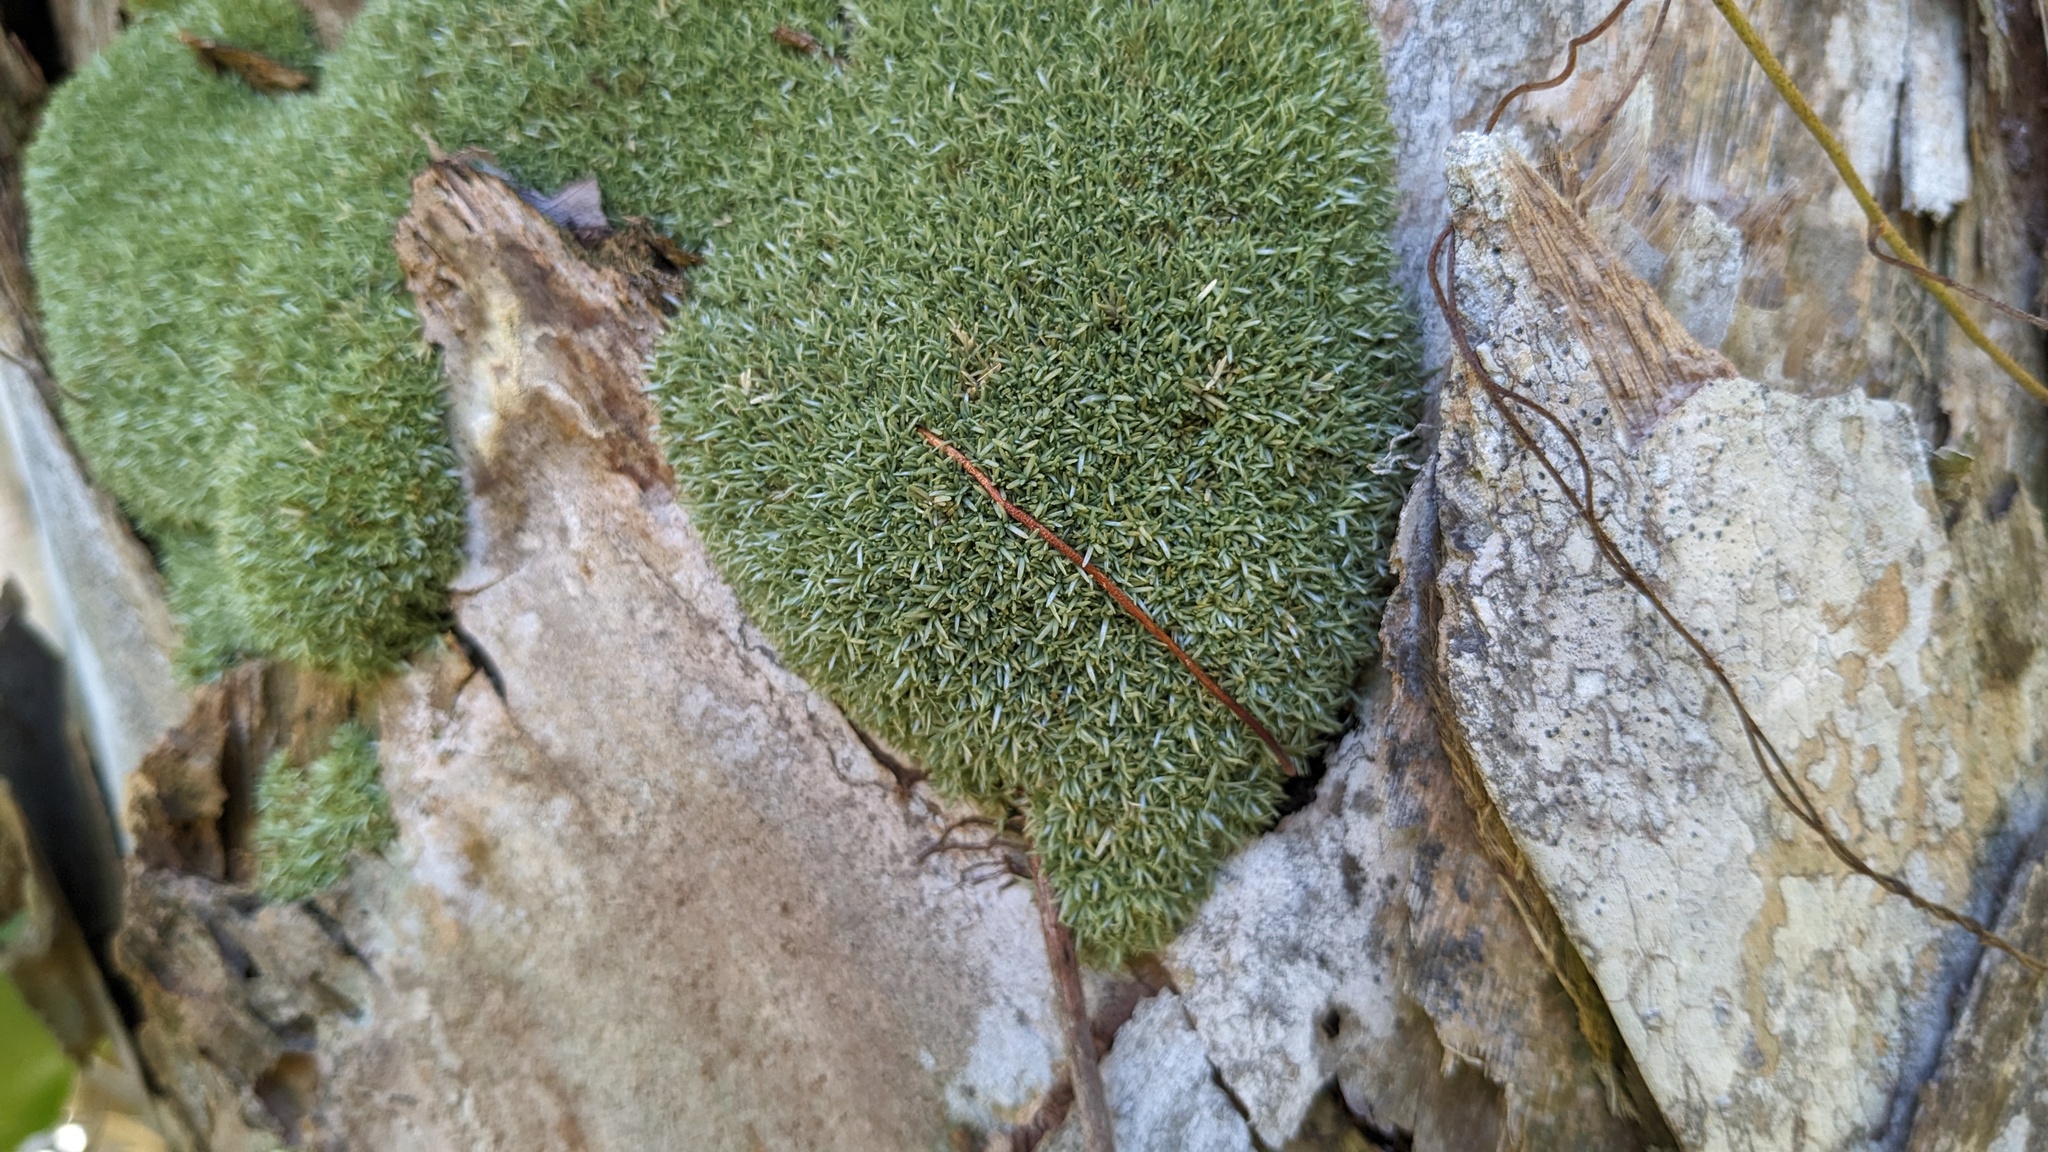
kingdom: Plantae
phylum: Bryophyta
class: Bryopsida
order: Dicranales
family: Octoblepharaceae
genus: Octoblepharum
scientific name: Octoblepharum albidum
